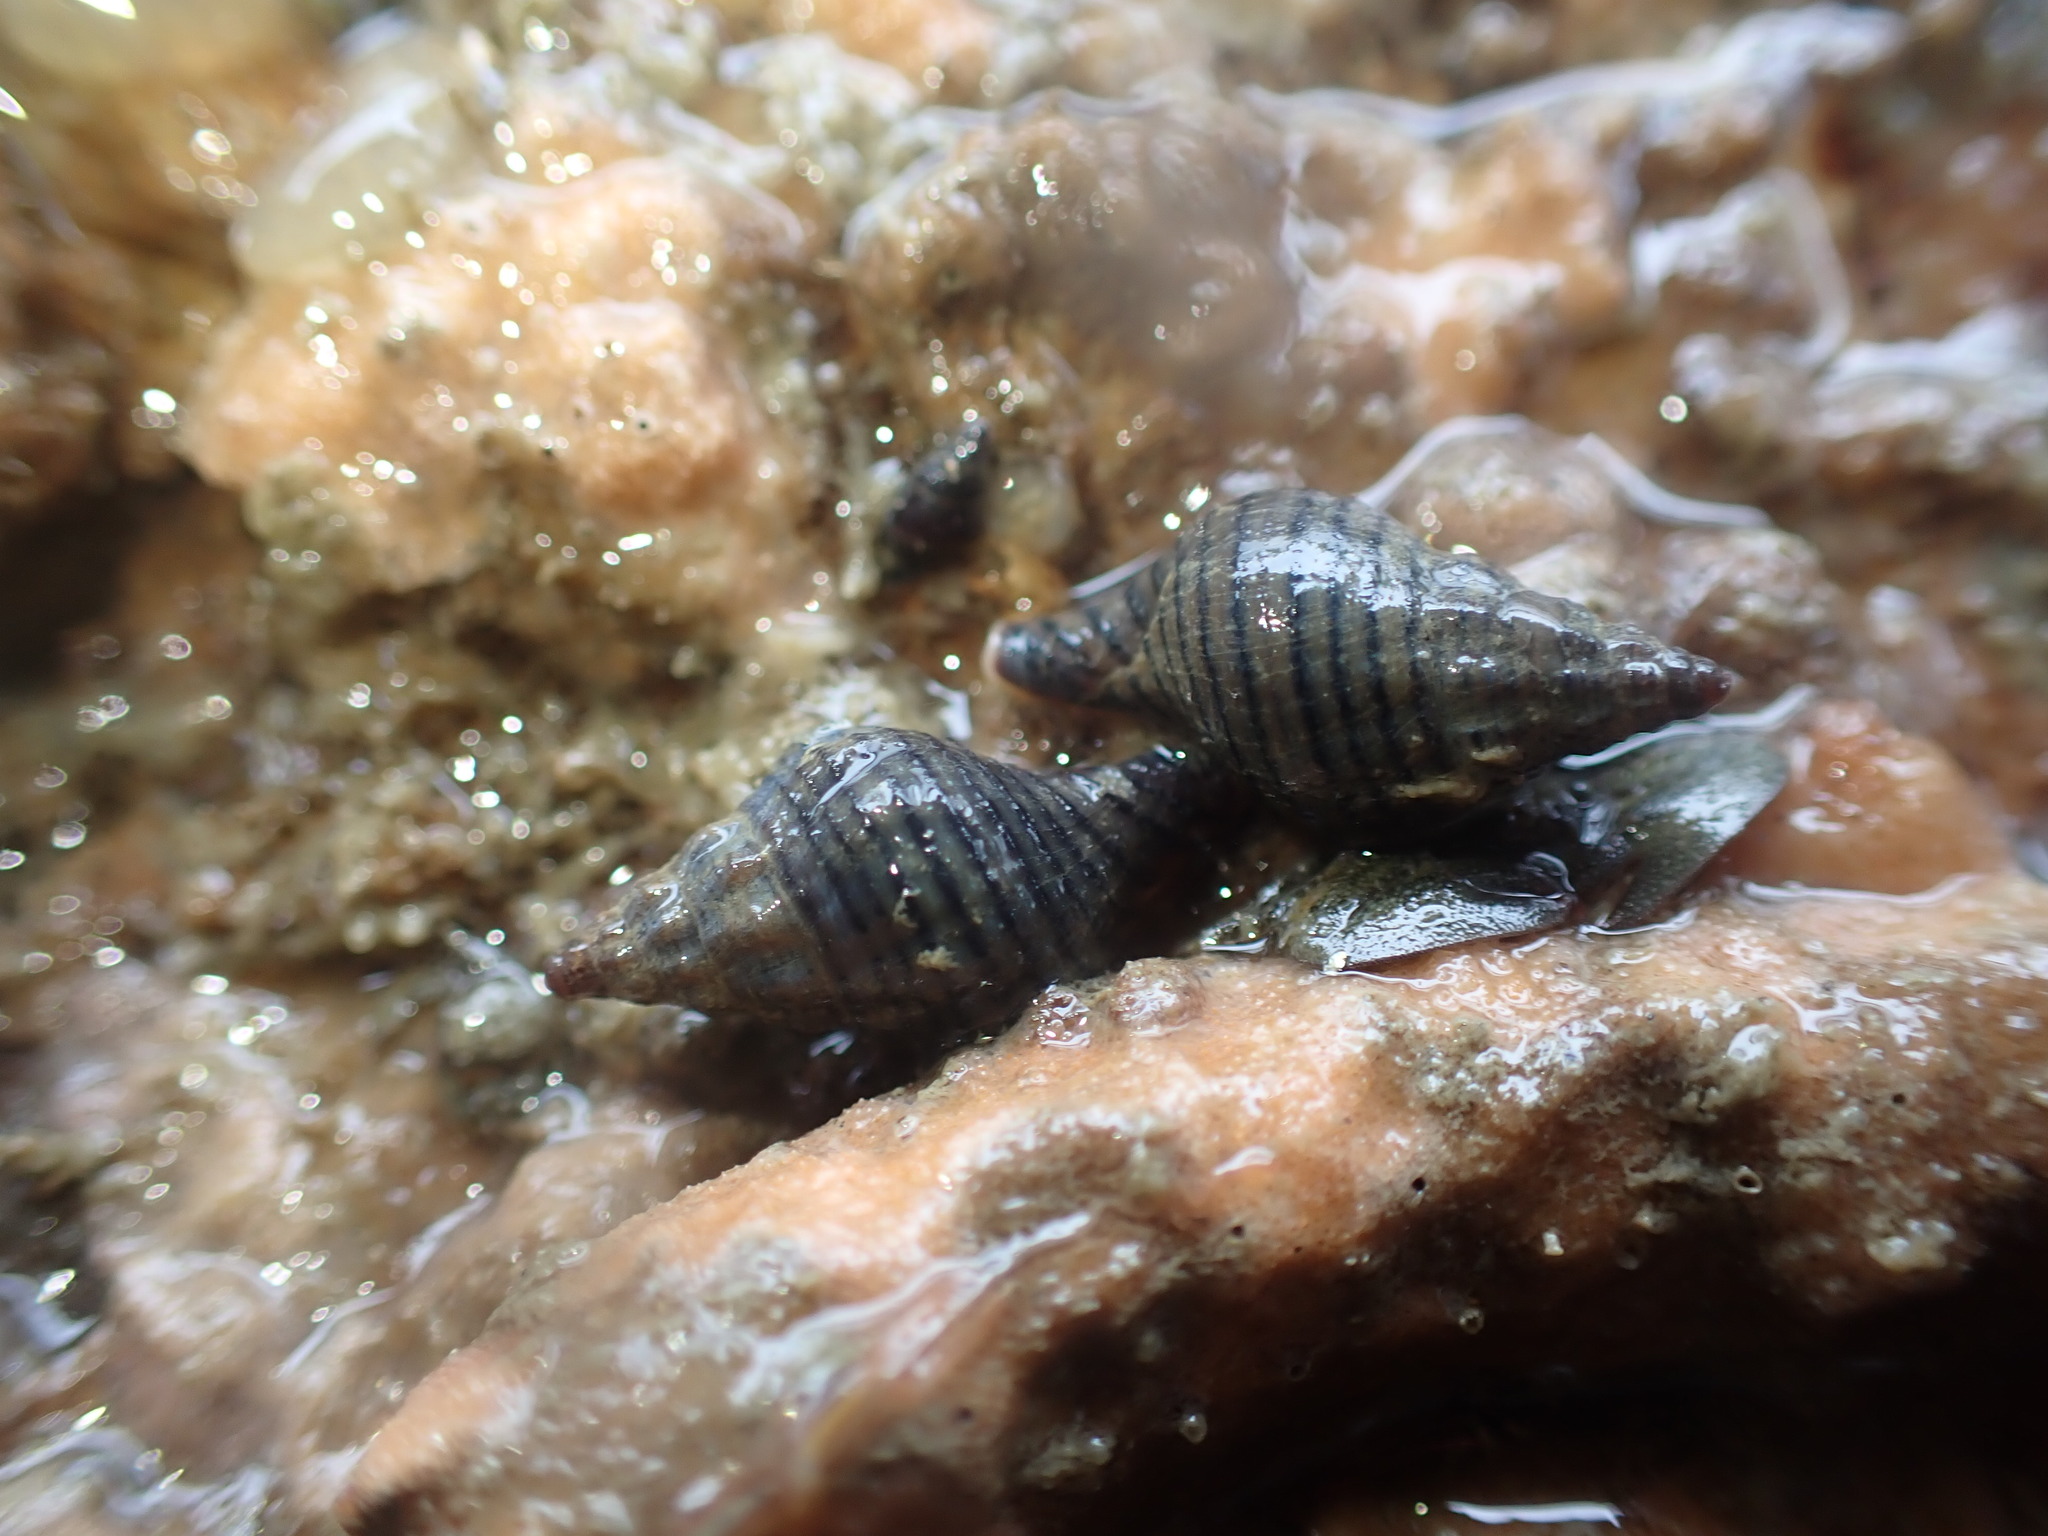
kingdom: Animalia
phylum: Mollusca
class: Gastropoda
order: Neogastropoda
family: Tudiclidae
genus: Buccinulum
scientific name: Buccinulum linea
